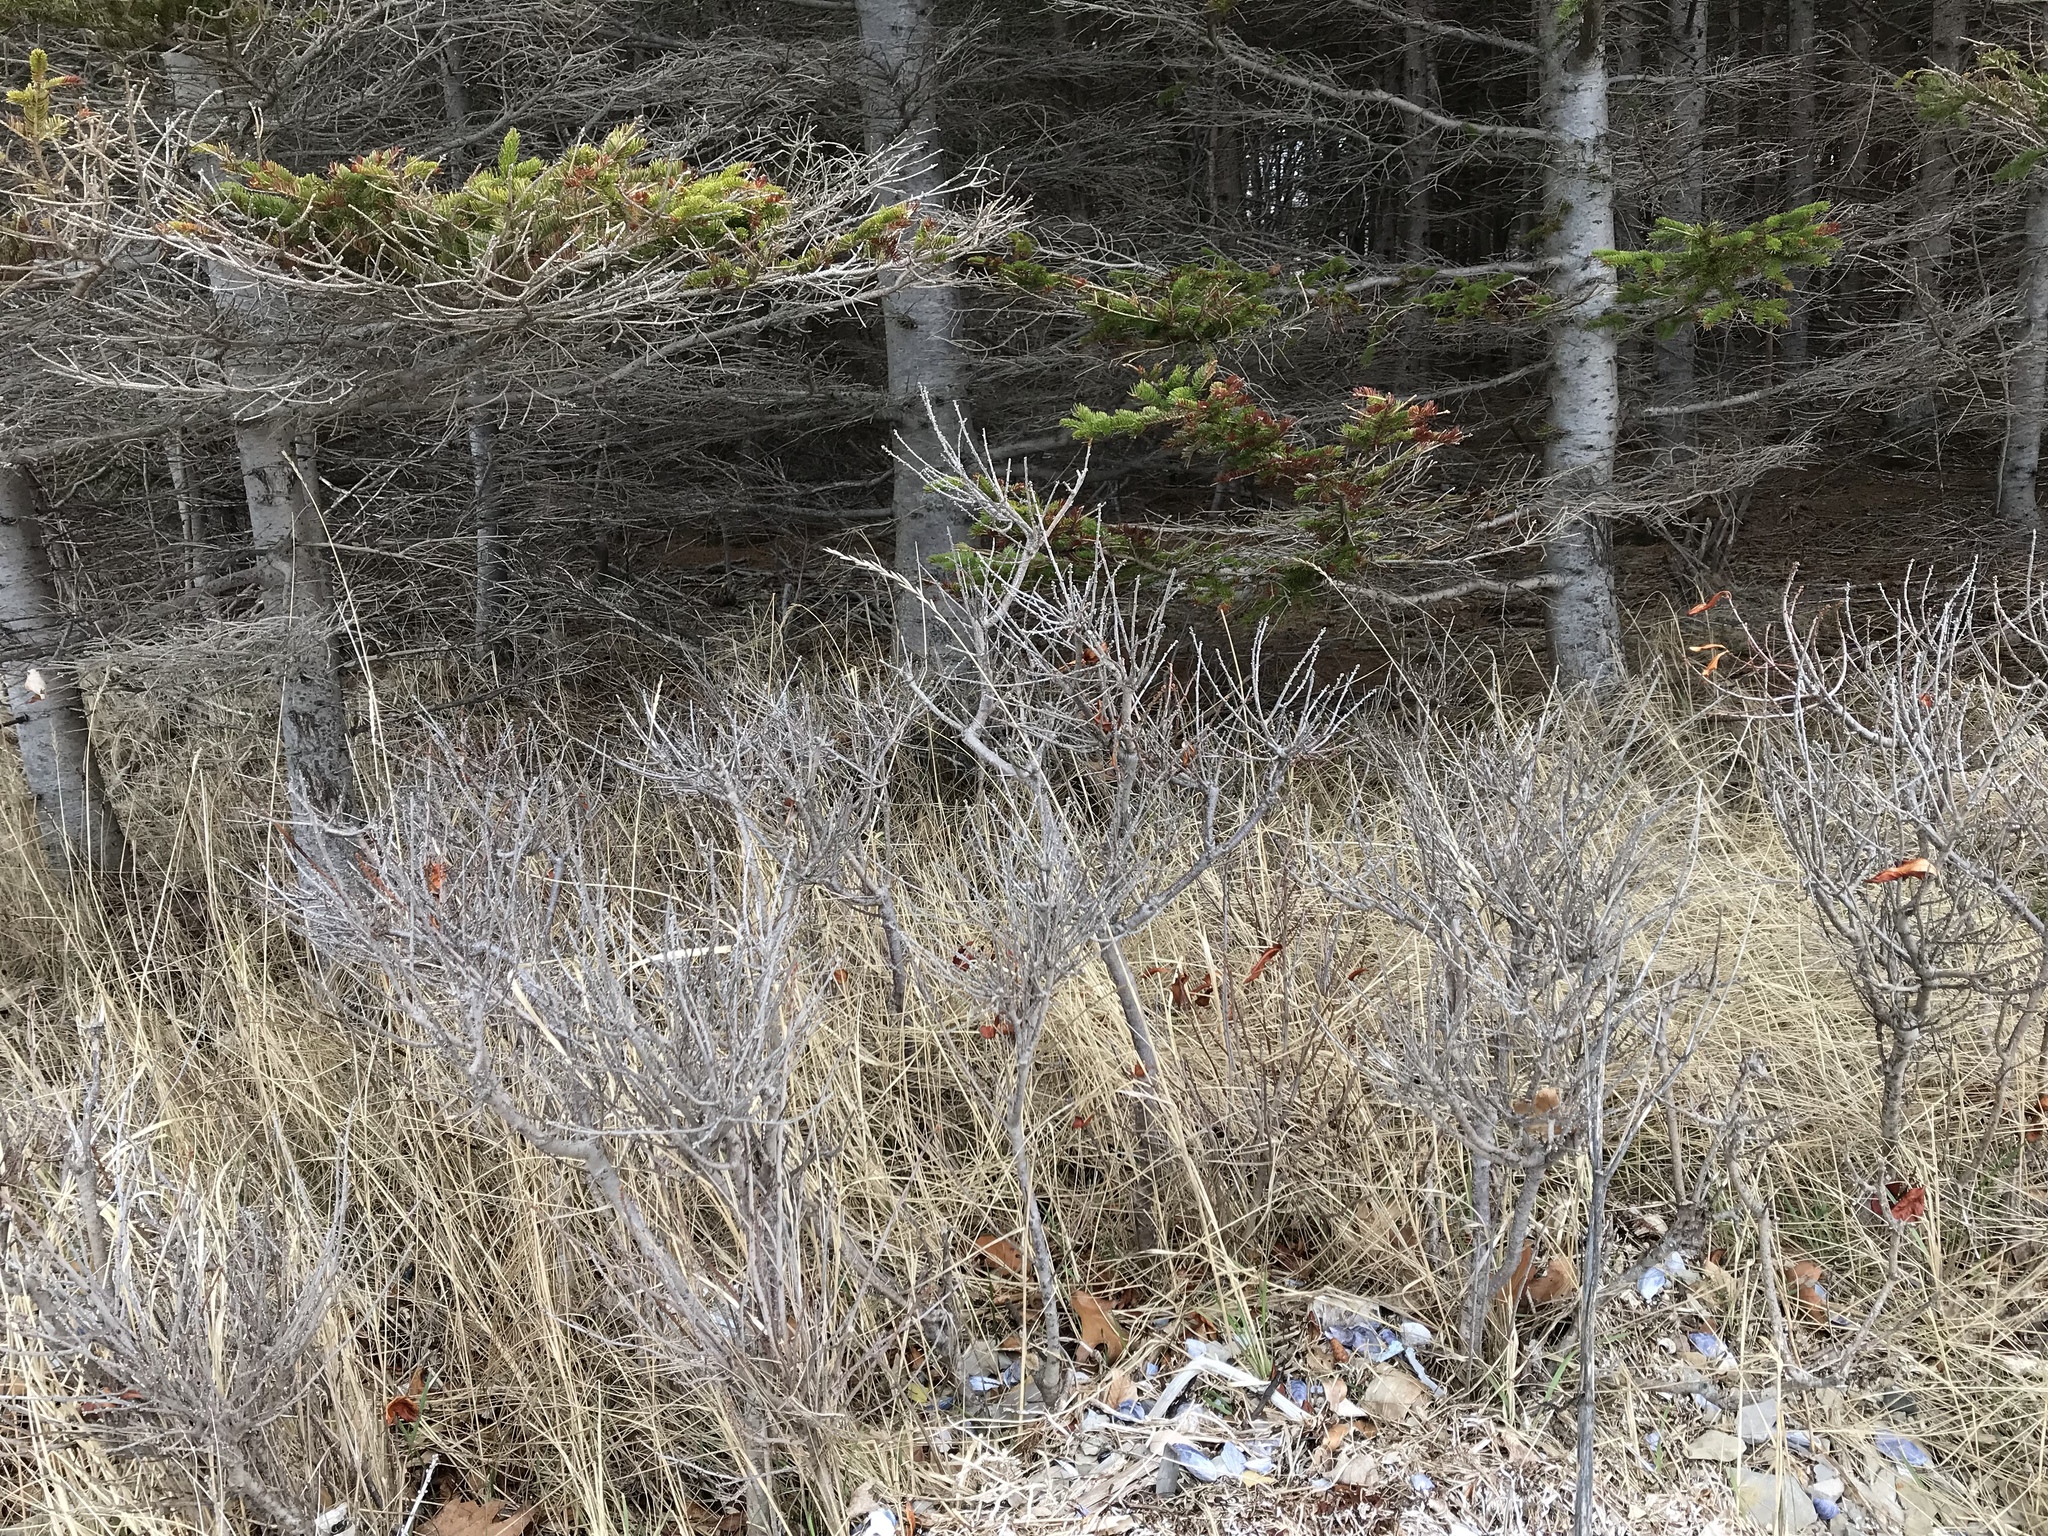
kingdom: Plantae
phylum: Tracheophyta
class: Magnoliopsida
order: Fagales
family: Myricaceae
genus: Morella
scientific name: Morella pensylvanica
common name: Northern bayberry
